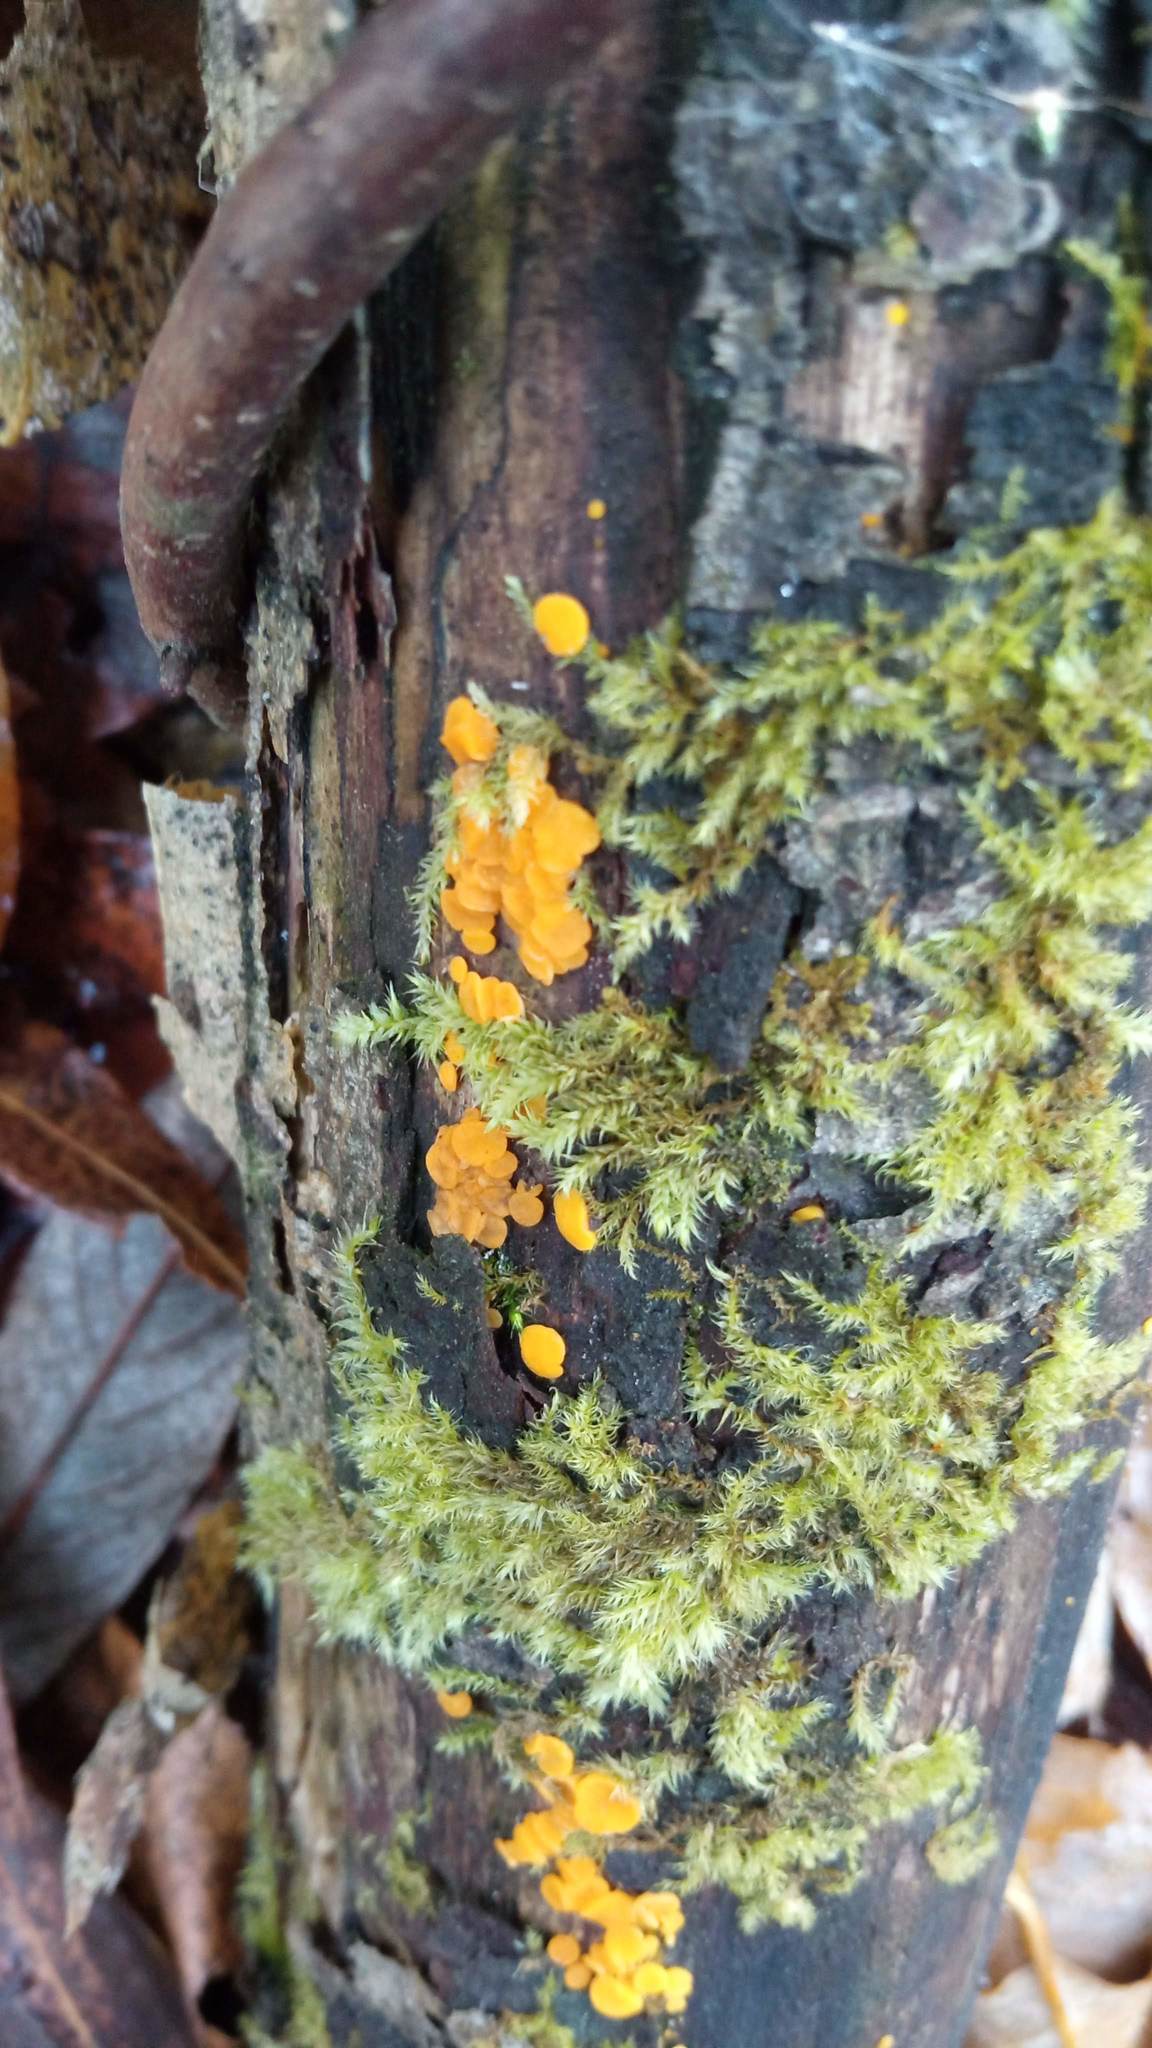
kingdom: Fungi
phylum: Ascomycota
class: Leotiomycetes
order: Helotiales
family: Pezizellaceae
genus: Calycina
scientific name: Calycina citrina
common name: Yellow fairy cups
